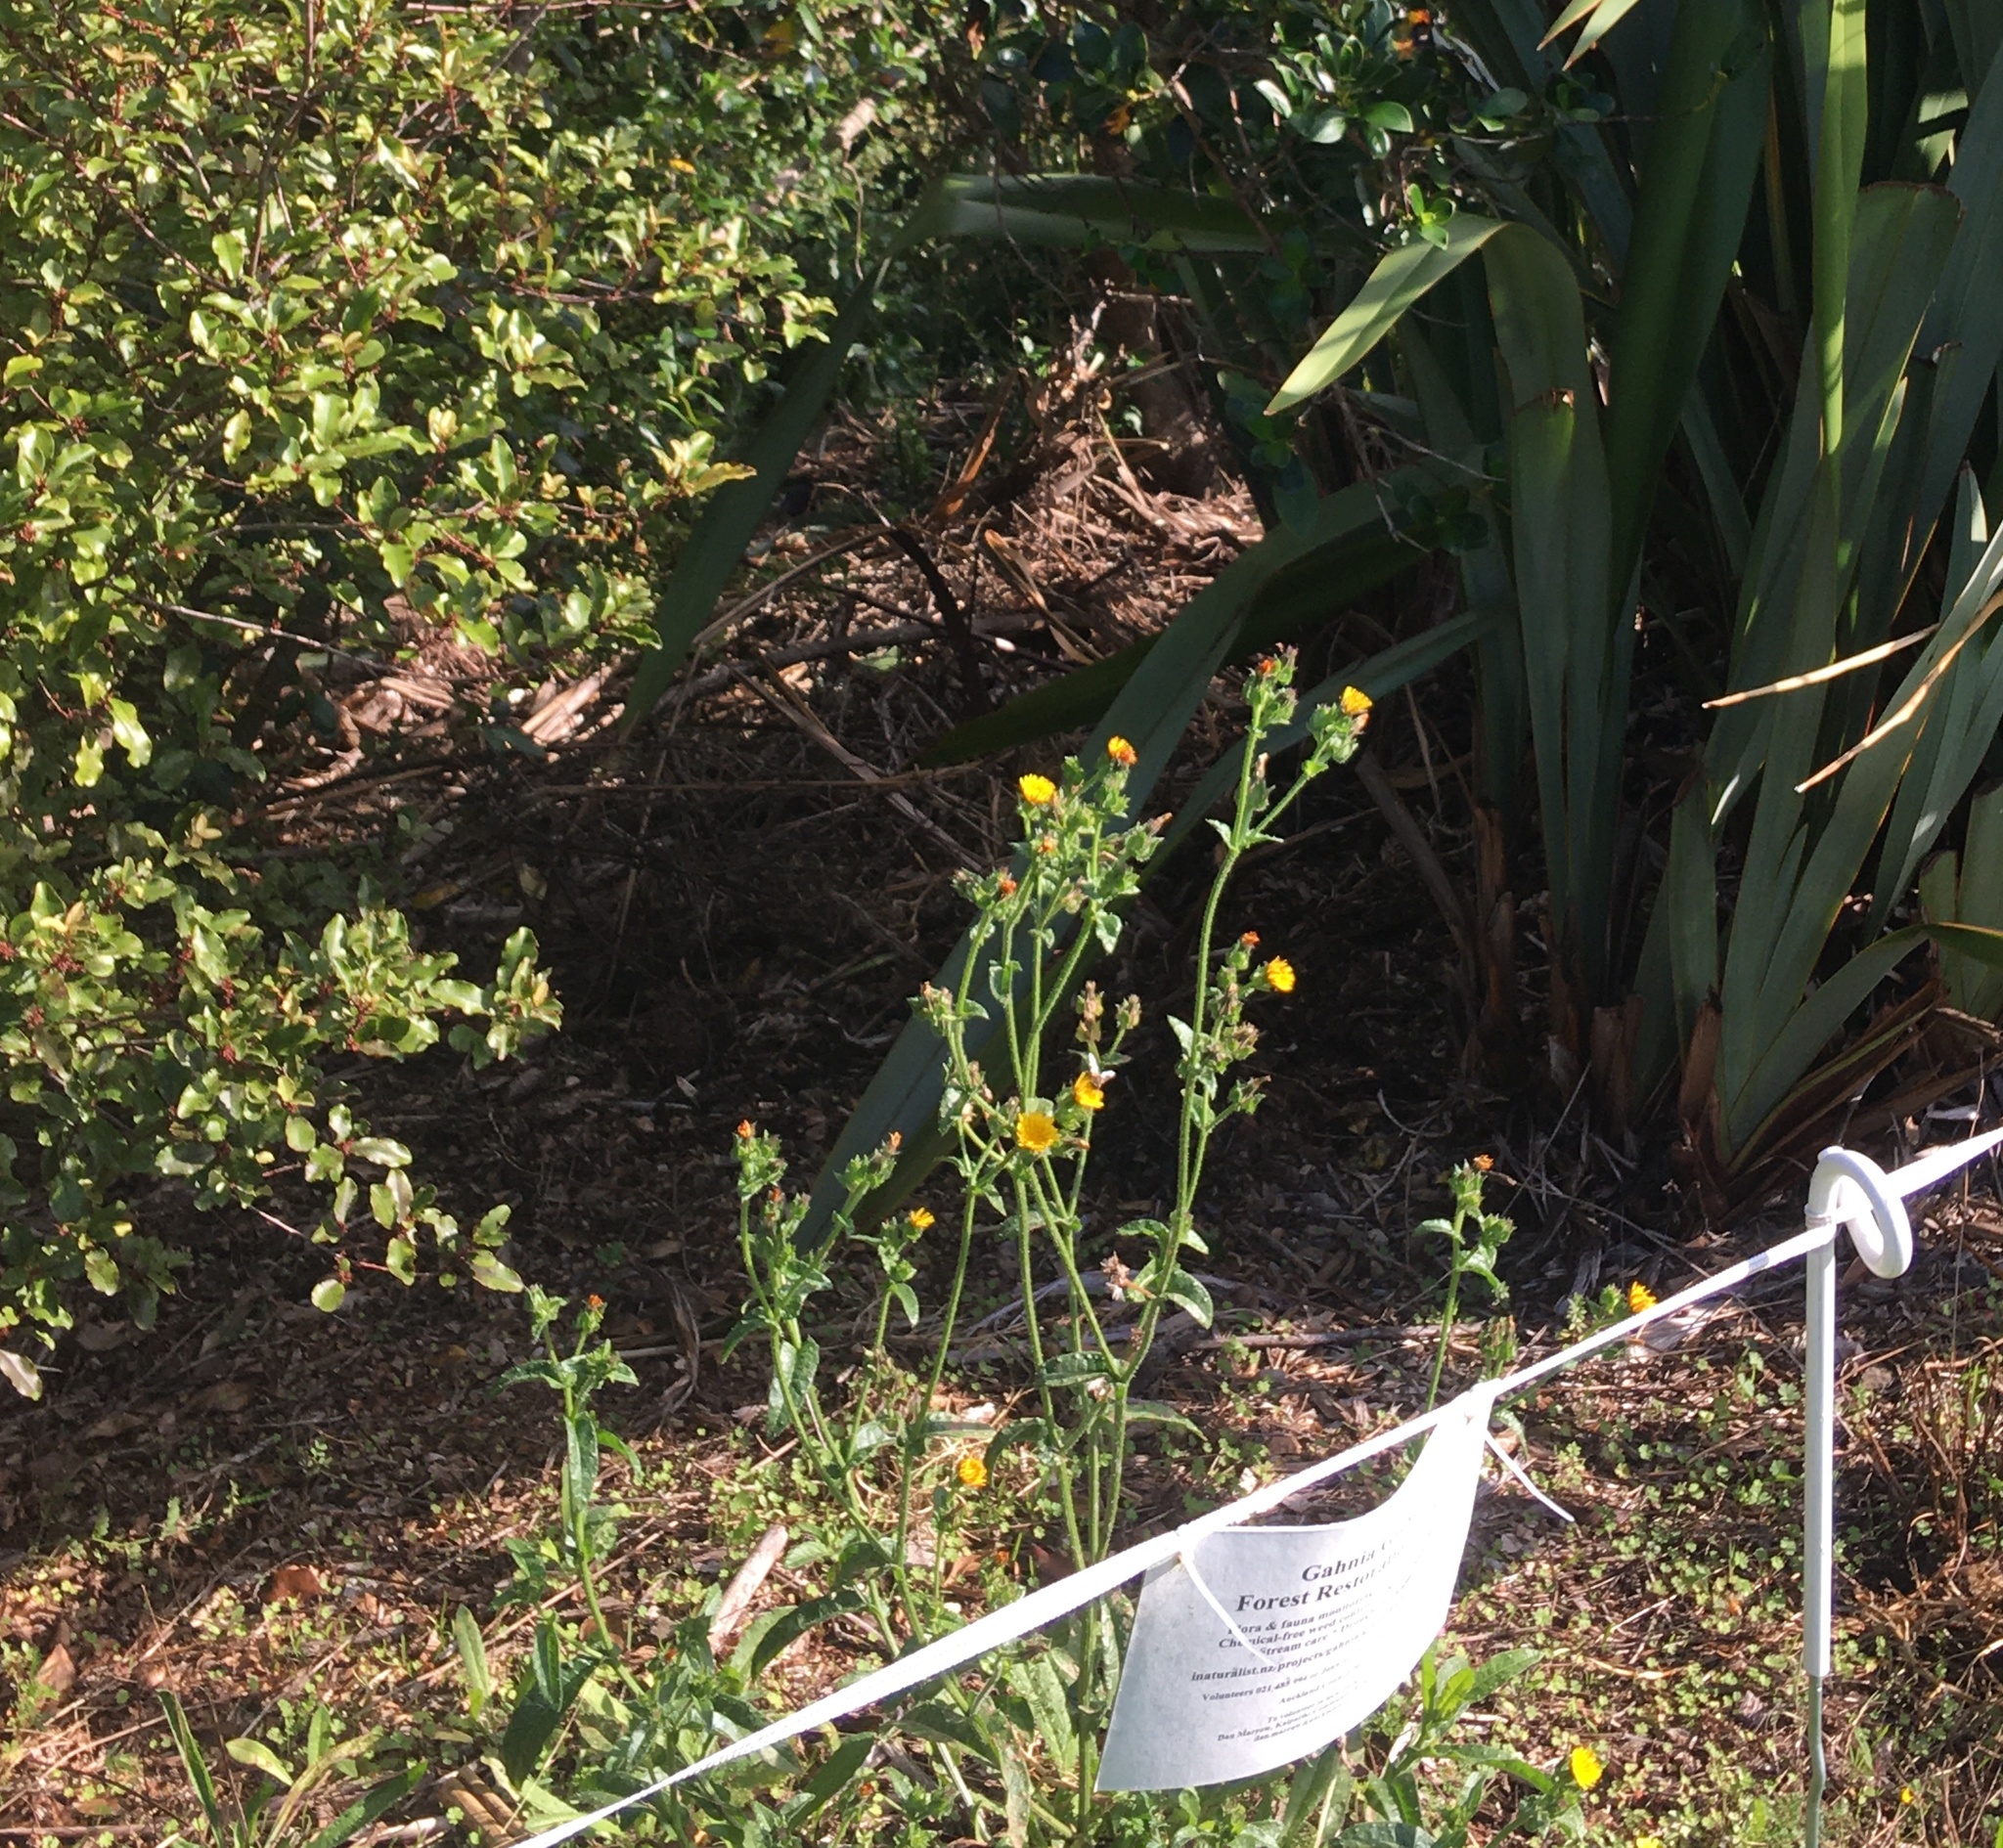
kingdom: Plantae
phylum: Tracheophyta
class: Magnoliopsida
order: Asterales
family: Asteraceae
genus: Helminthotheca
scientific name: Helminthotheca echioides
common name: Ox-tongue
